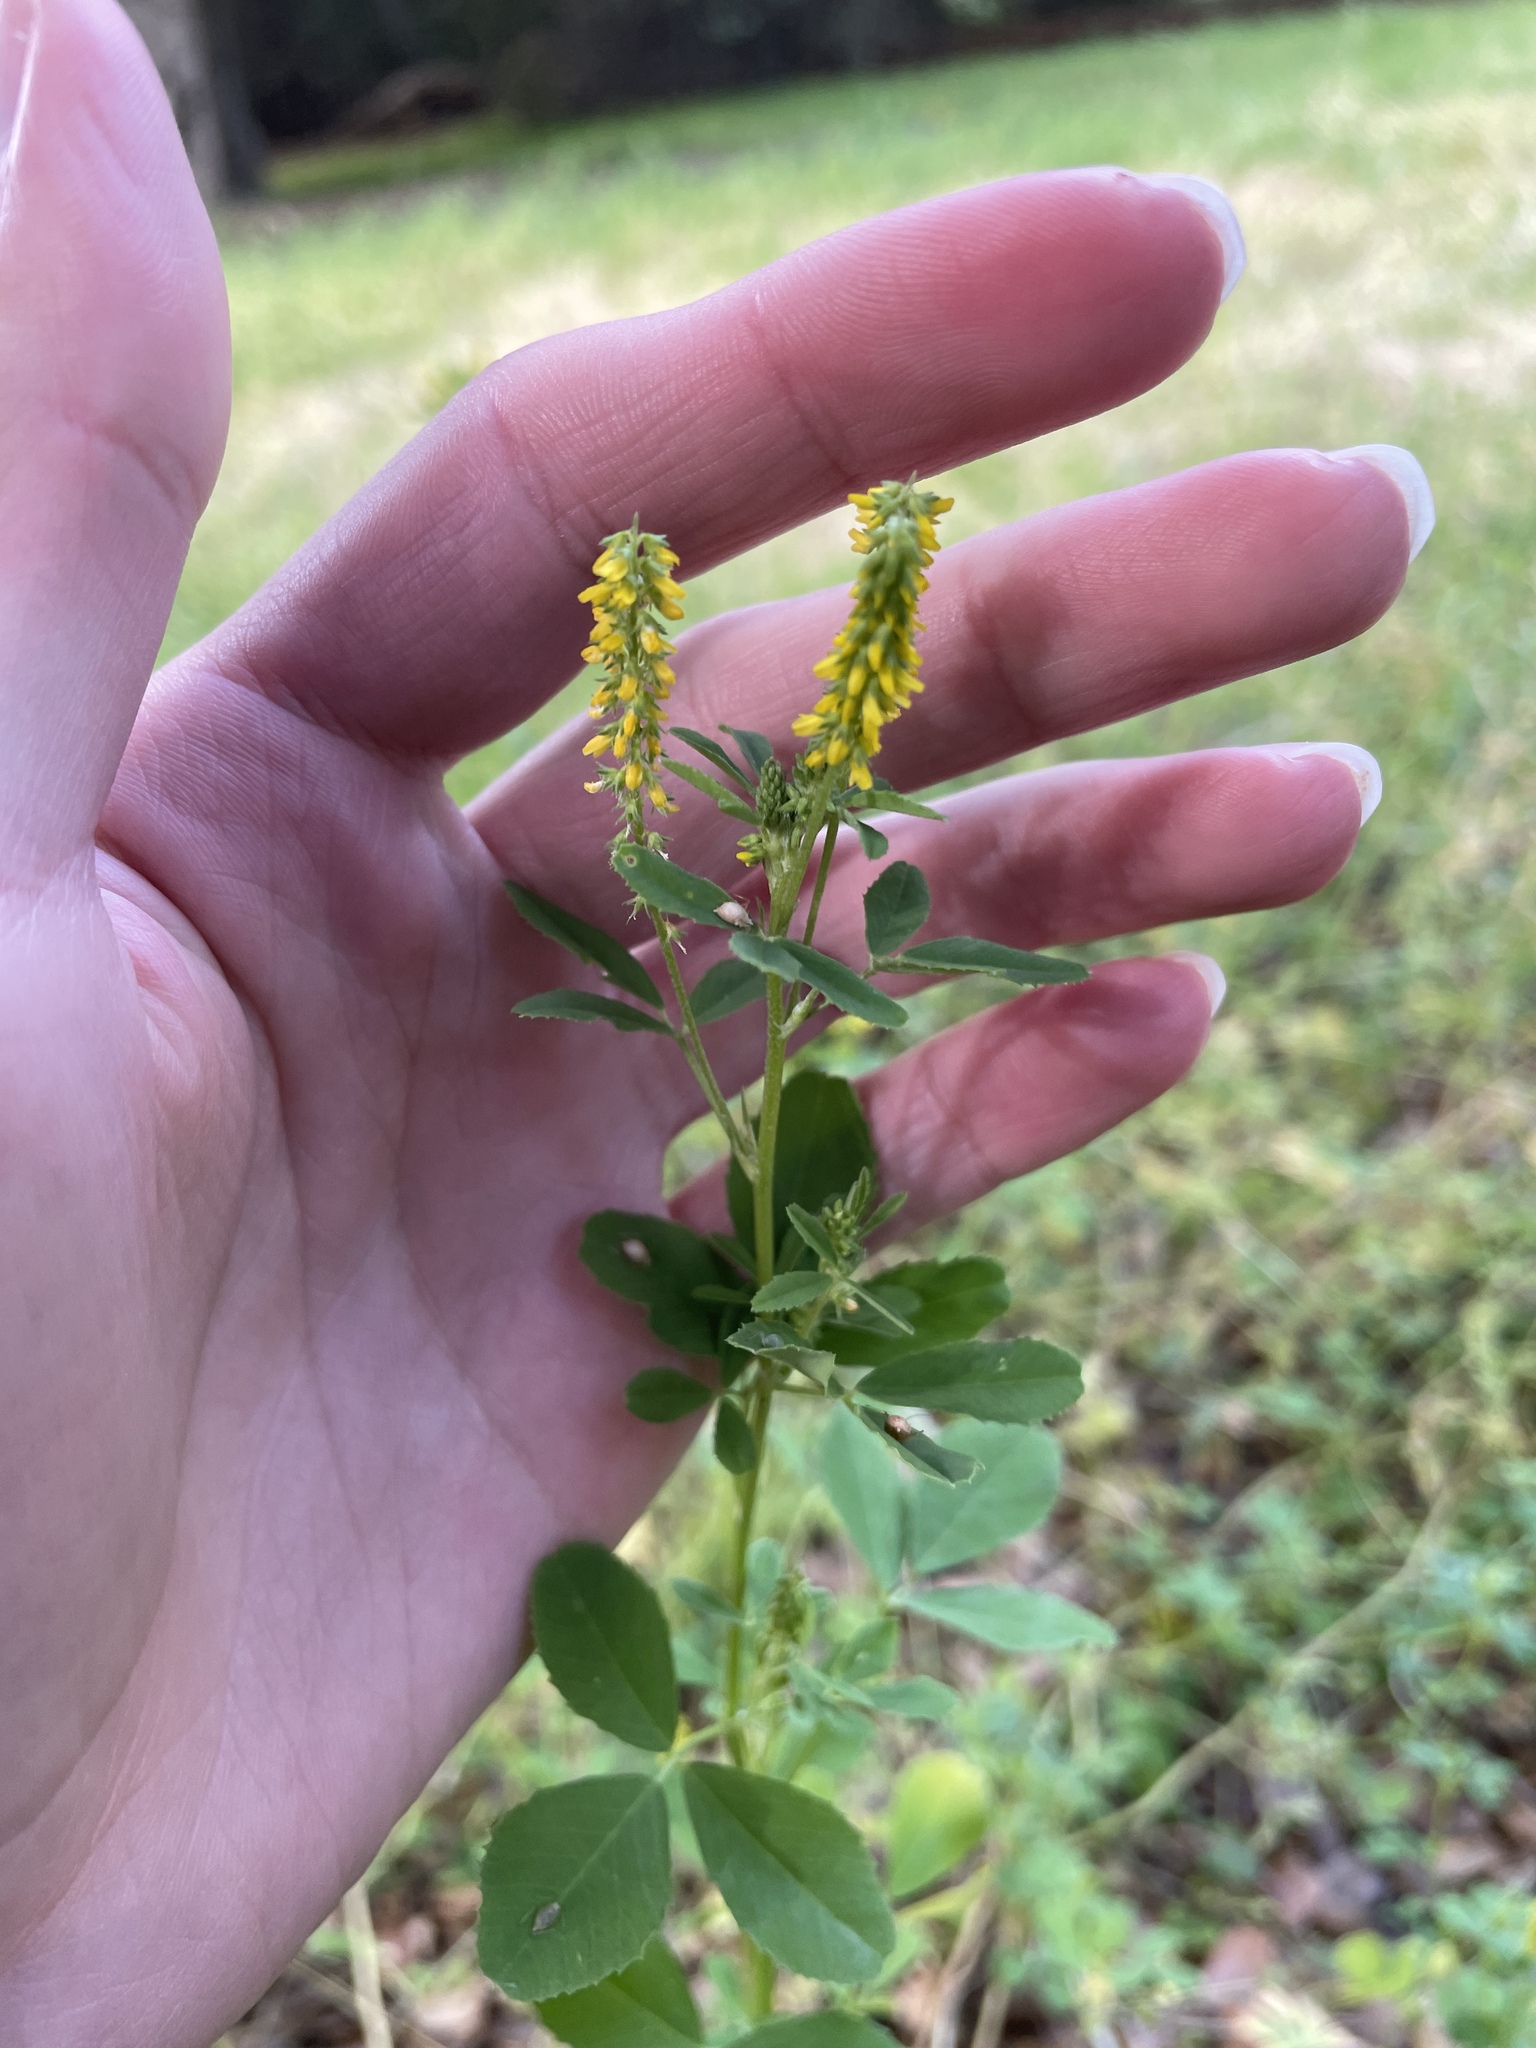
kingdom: Plantae
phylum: Tracheophyta
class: Magnoliopsida
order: Fabales
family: Fabaceae
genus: Melilotus
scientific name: Melilotus indicus
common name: Small melilot
